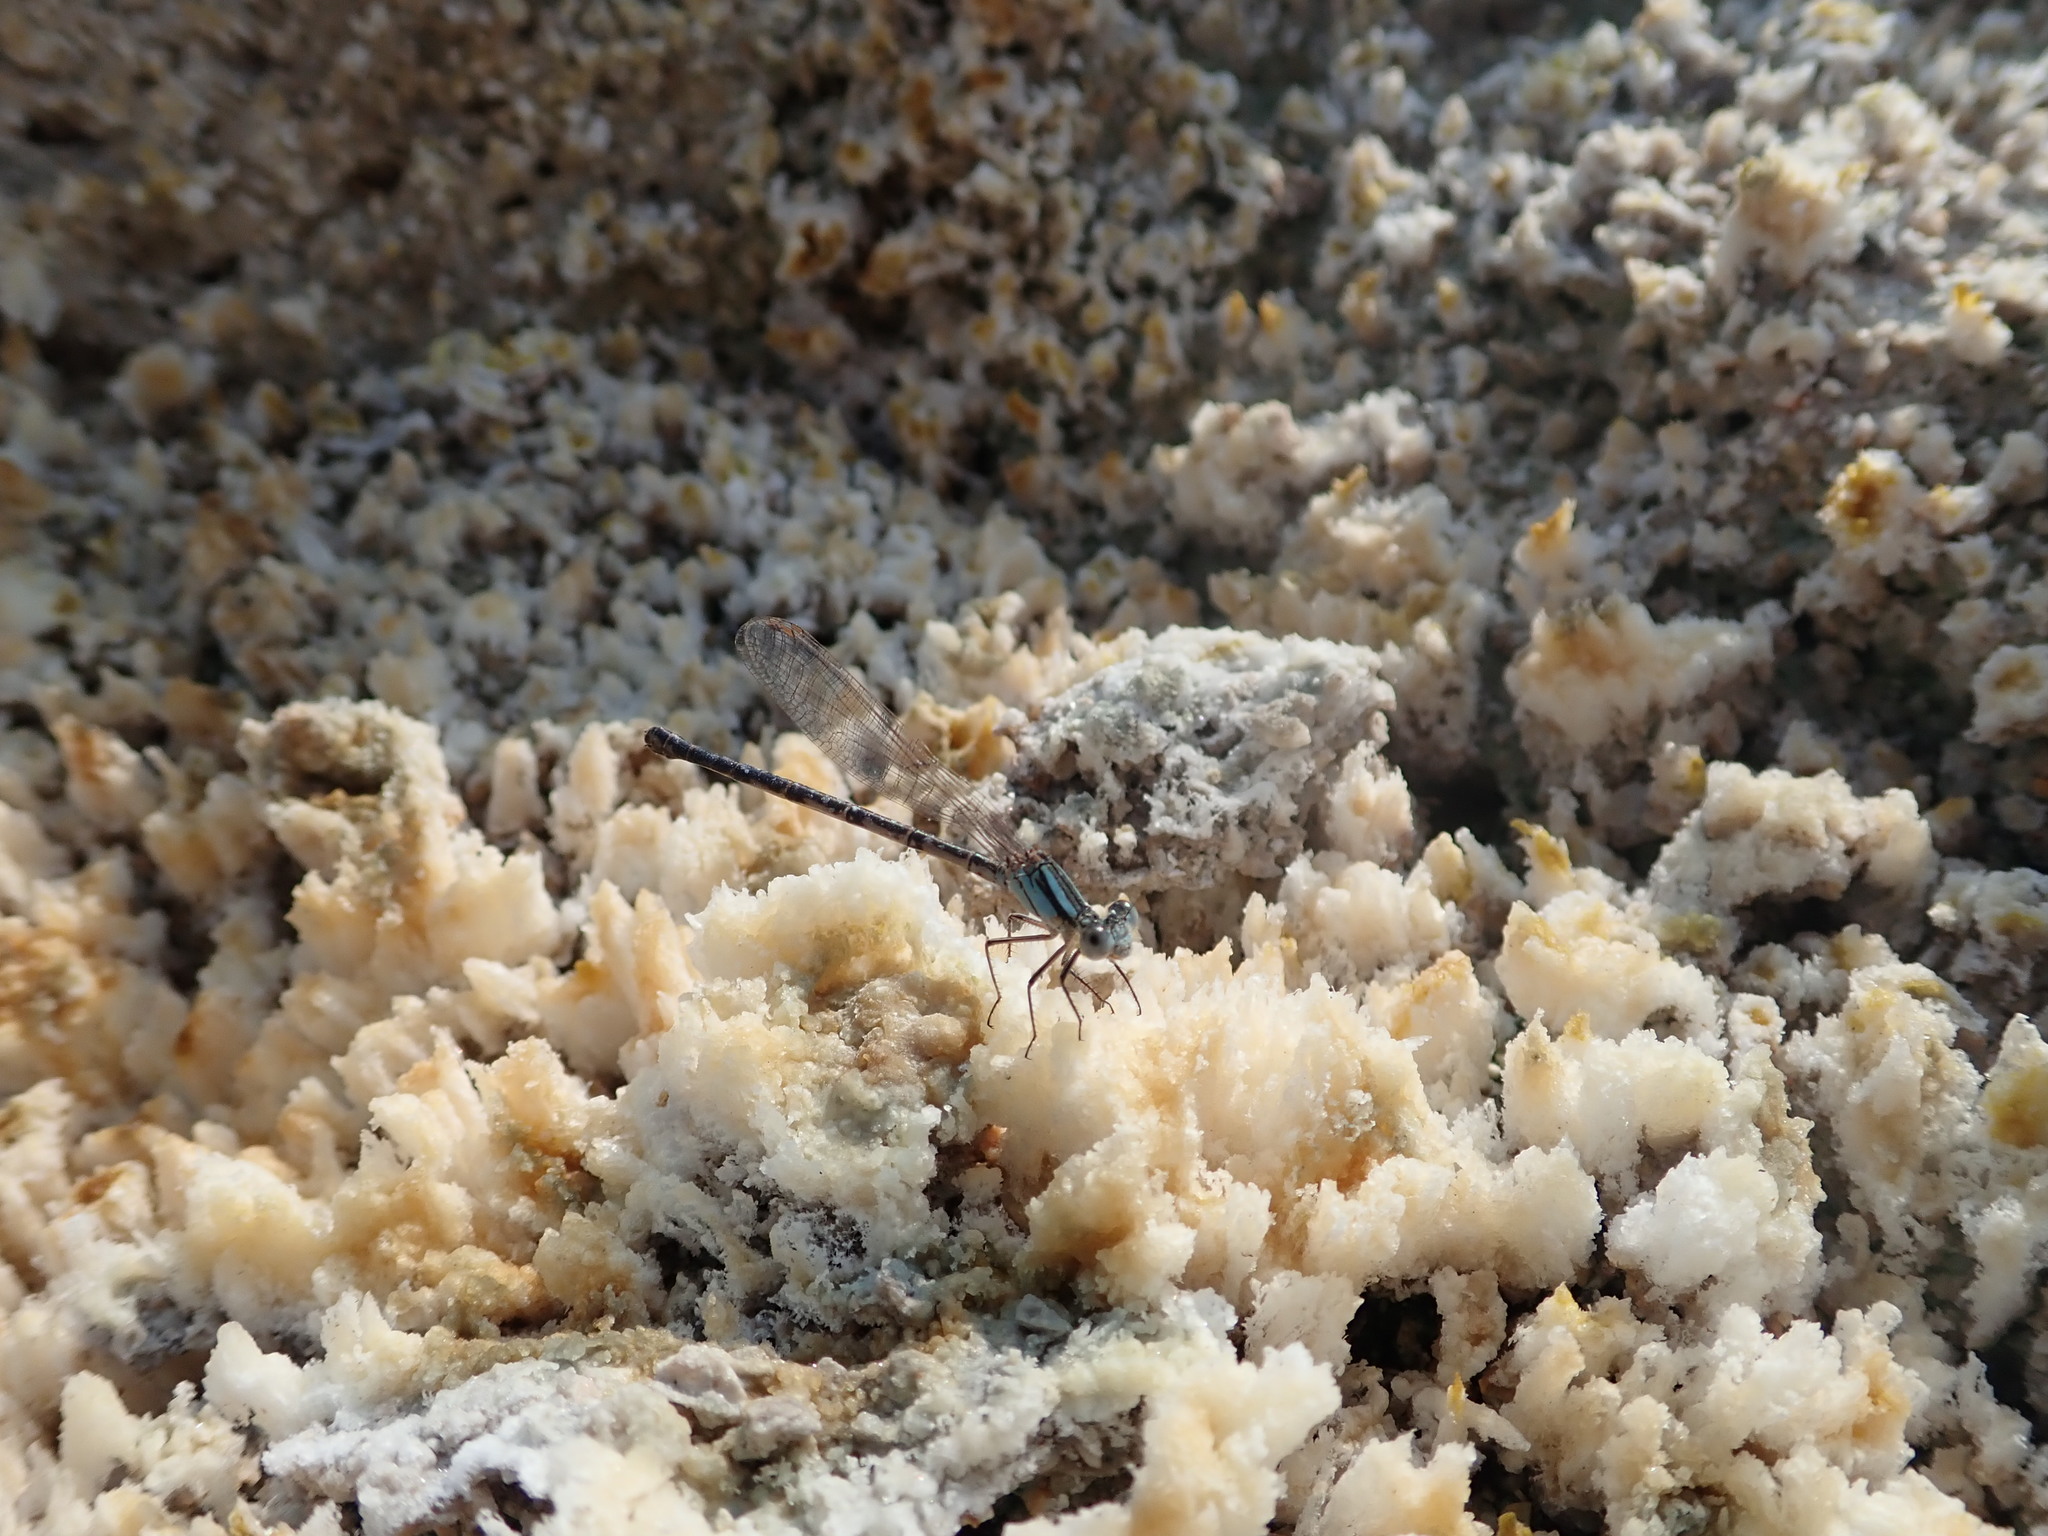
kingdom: Animalia
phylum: Arthropoda
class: Insecta
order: Odonata
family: Coenagrionidae
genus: Argia
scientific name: Argia alberta
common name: Paiute dancer
